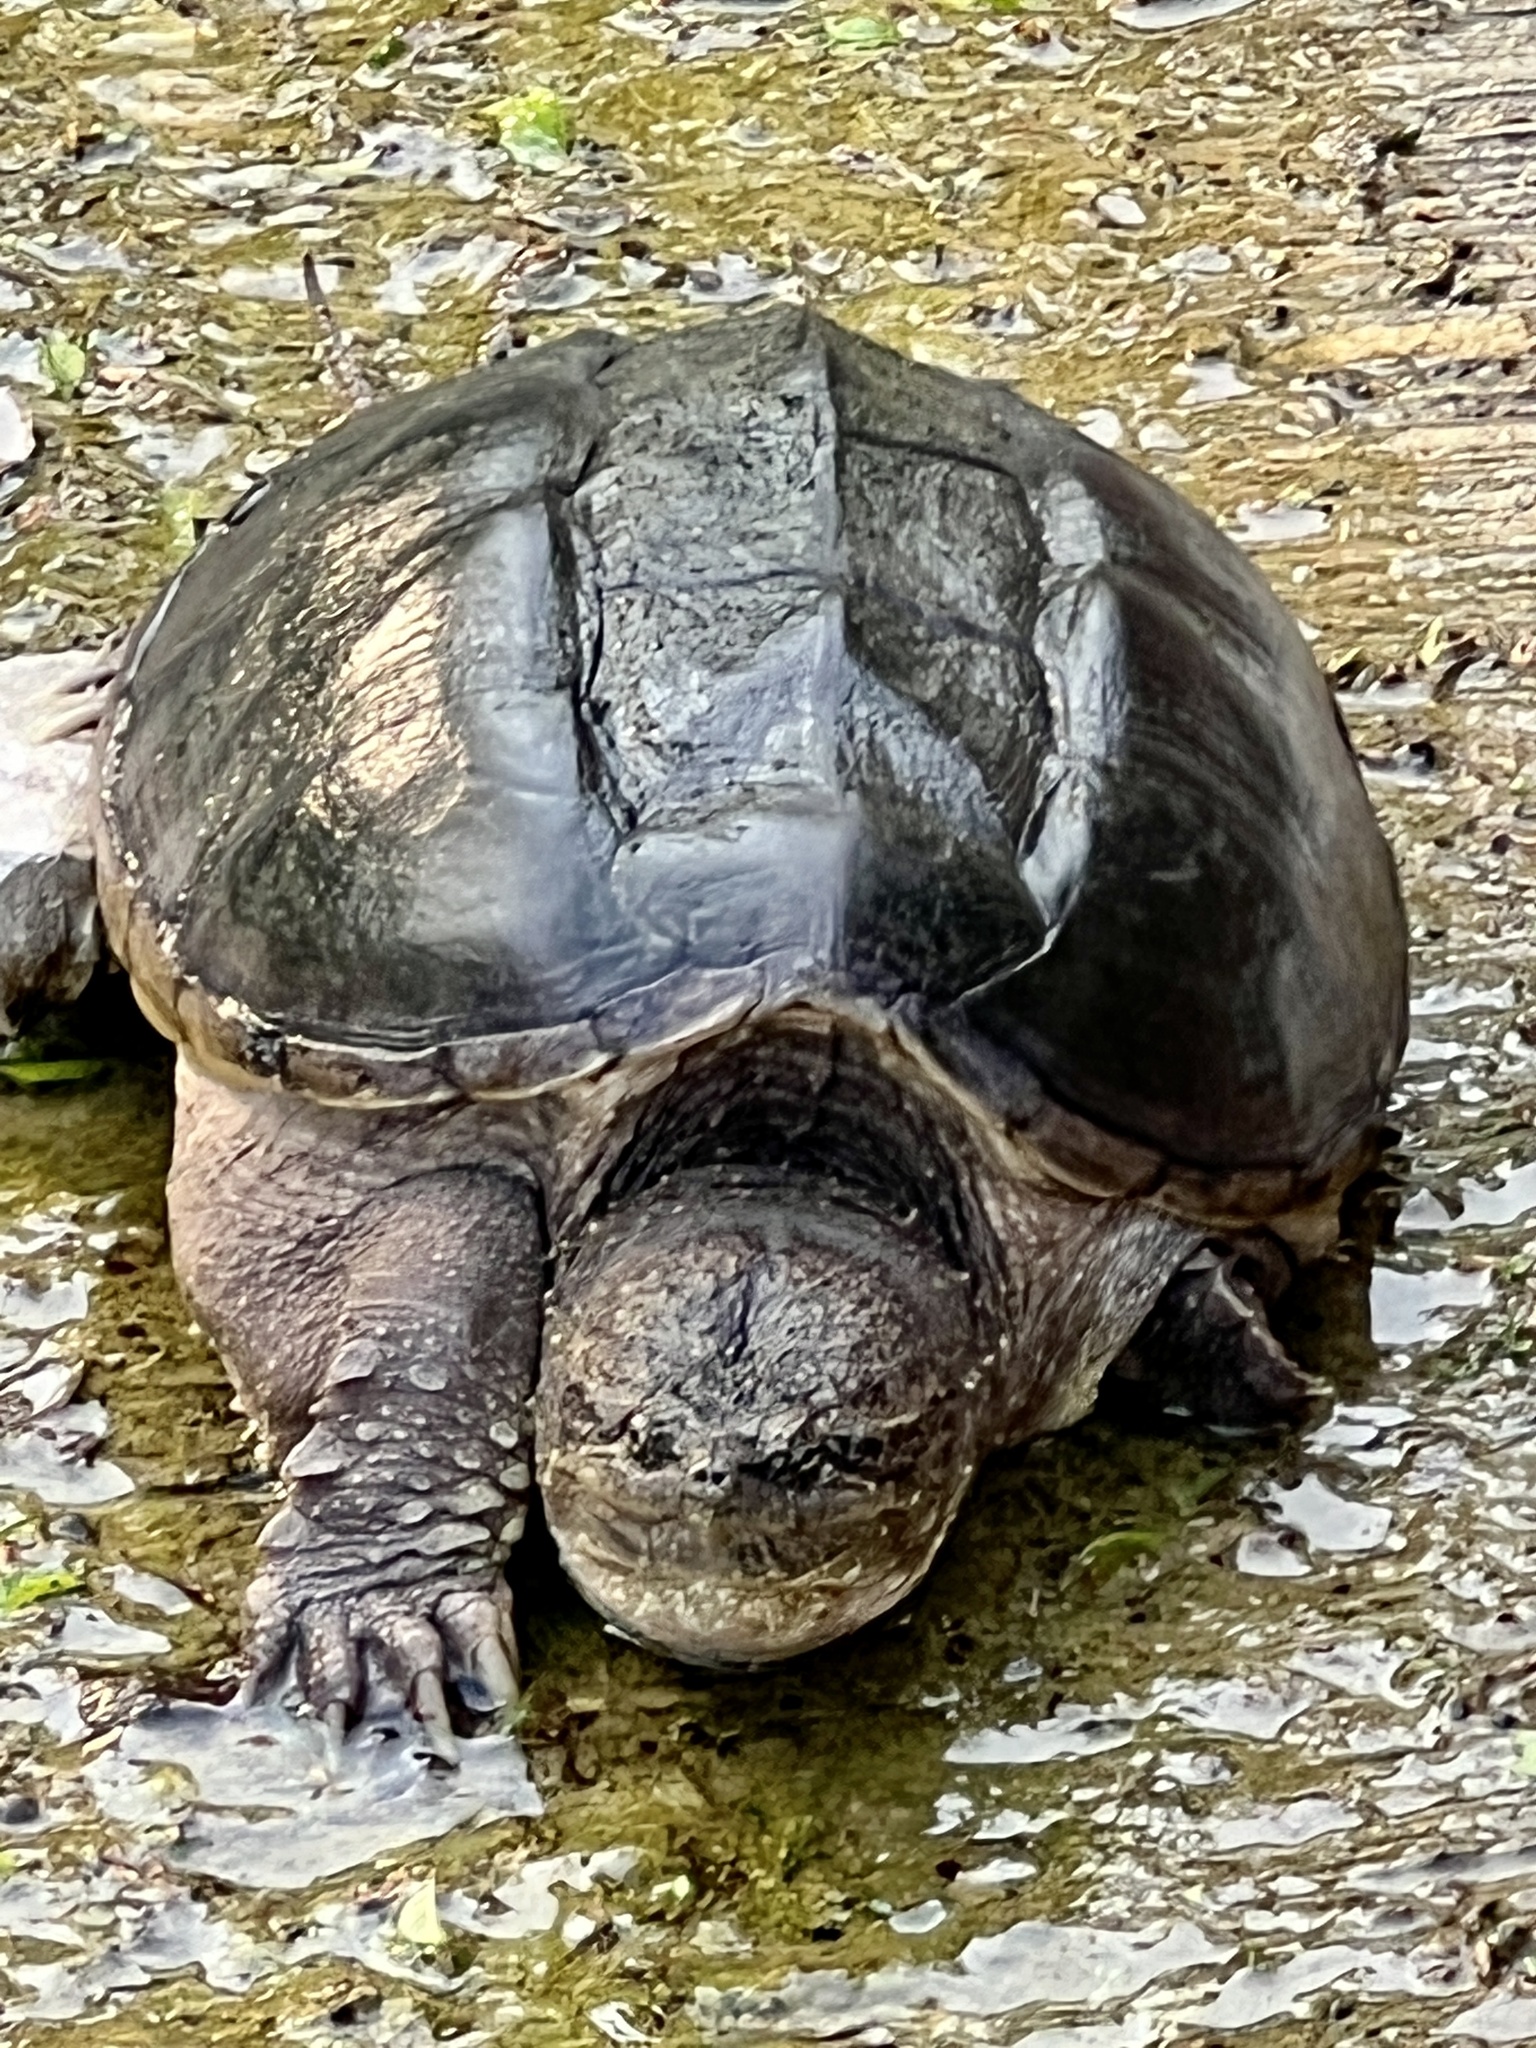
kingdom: Animalia
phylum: Chordata
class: Testudines
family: Chelydridae
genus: Chelydra
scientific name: Chelydra serpentina
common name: Common snapping turtle
